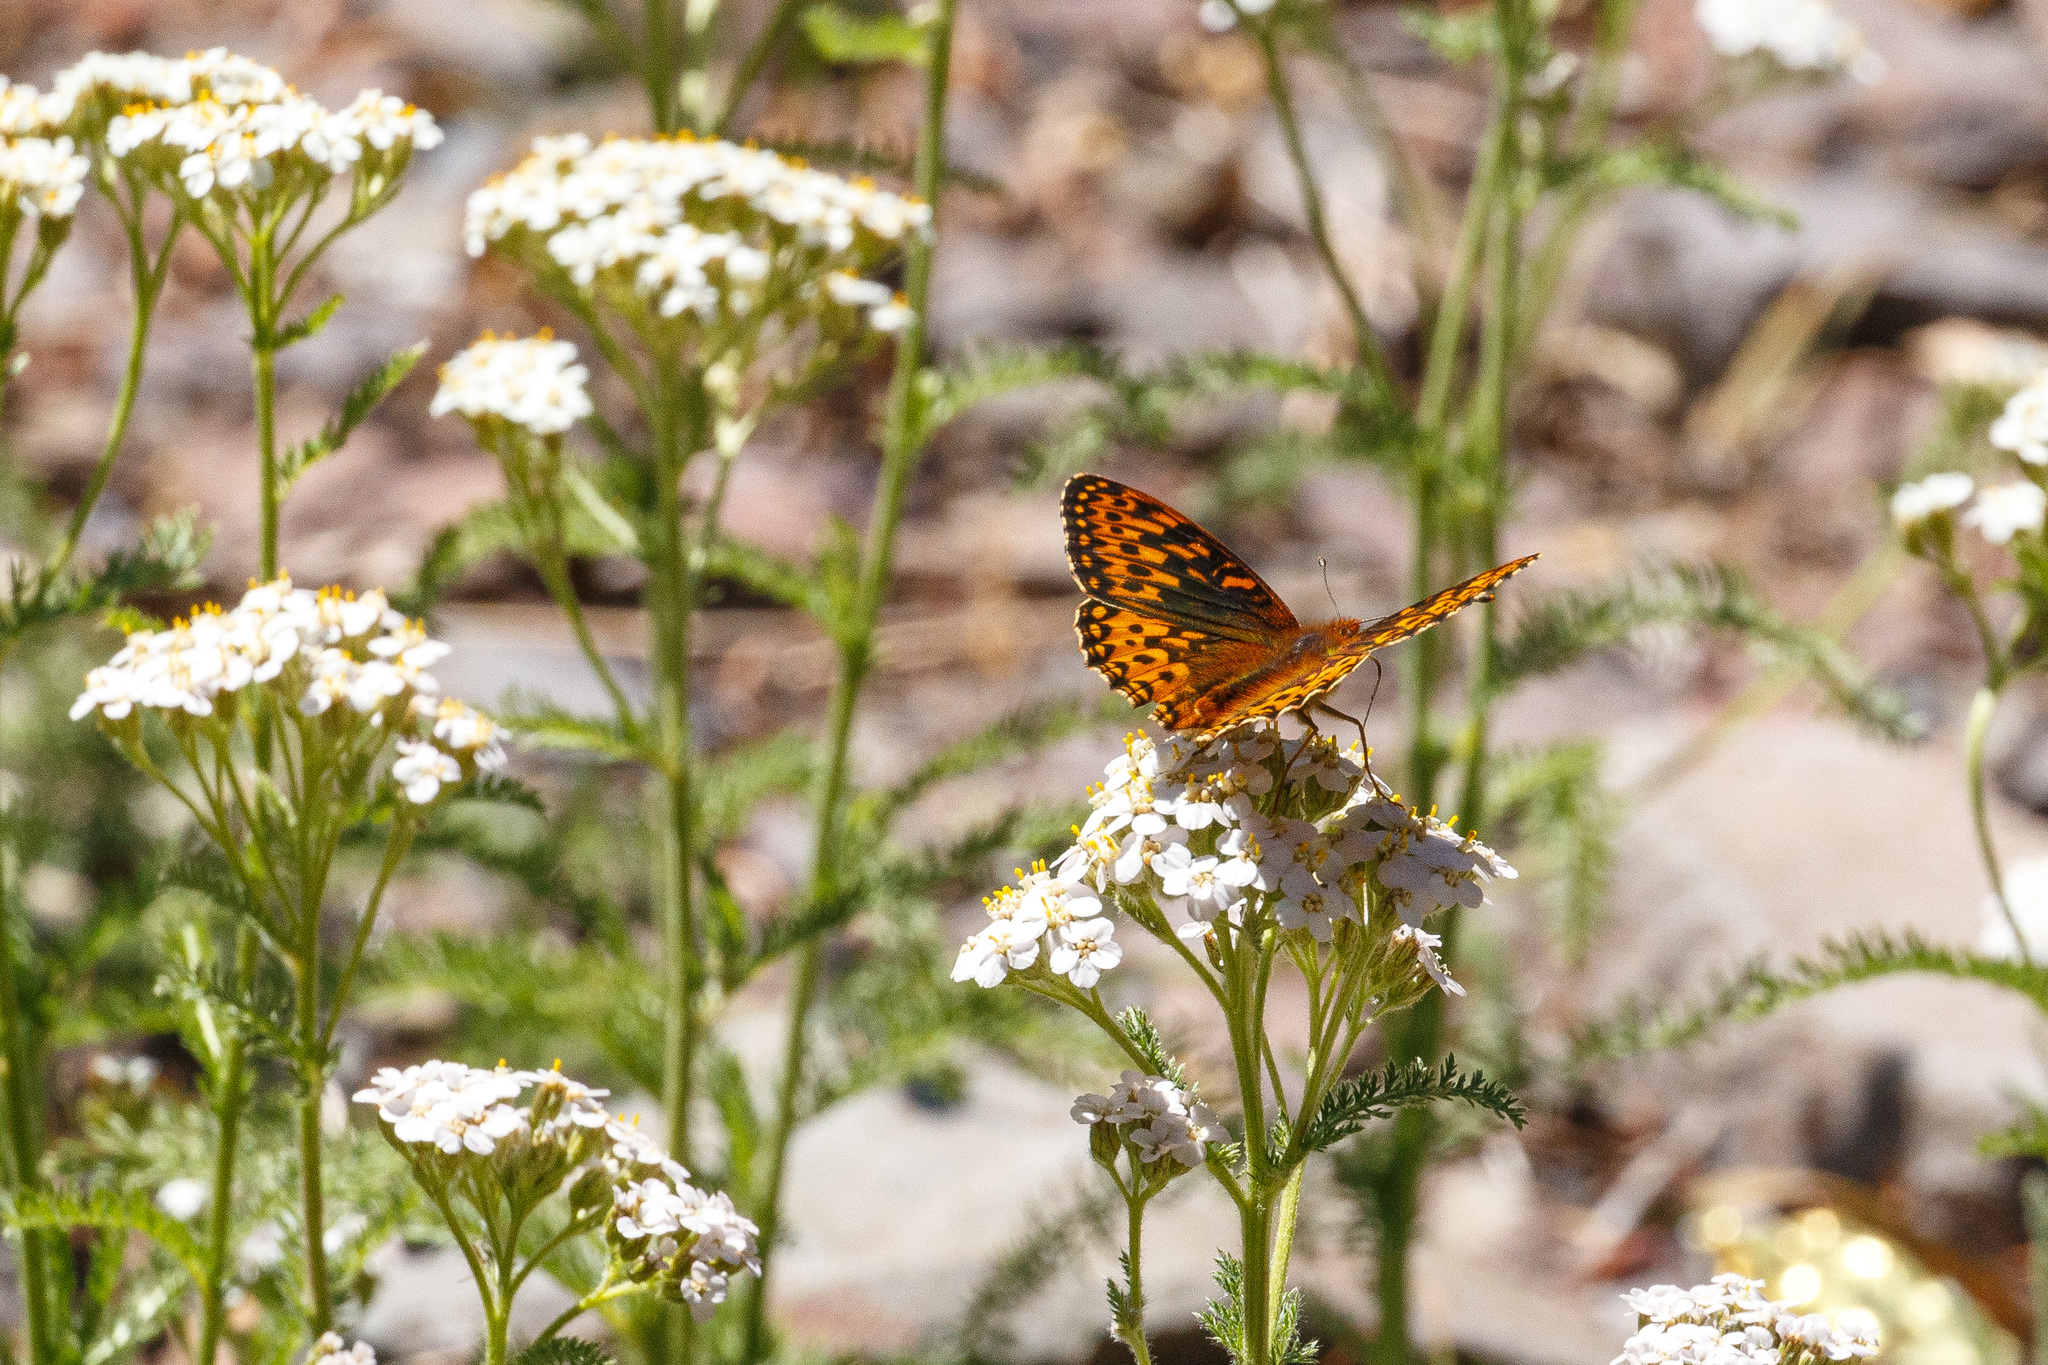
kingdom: Animalia
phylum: Arthropoda
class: Insecta
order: Lepidoptera
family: Nymphalidae
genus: Speyeria
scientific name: Speyeria hydaspe
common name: Hydaspe fritillary
